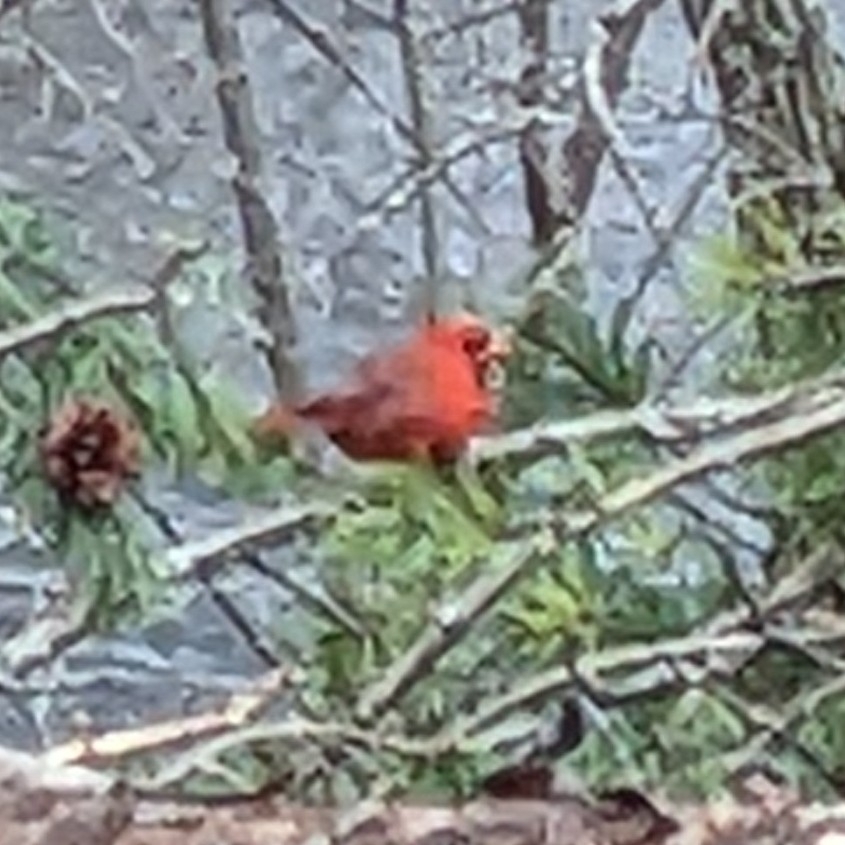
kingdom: Animalia
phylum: Chordata
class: Aves
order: Passeriformes
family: Cardinalidae
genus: Cardinalis
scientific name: Cardinalis cardinalis
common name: Northern cardinal
